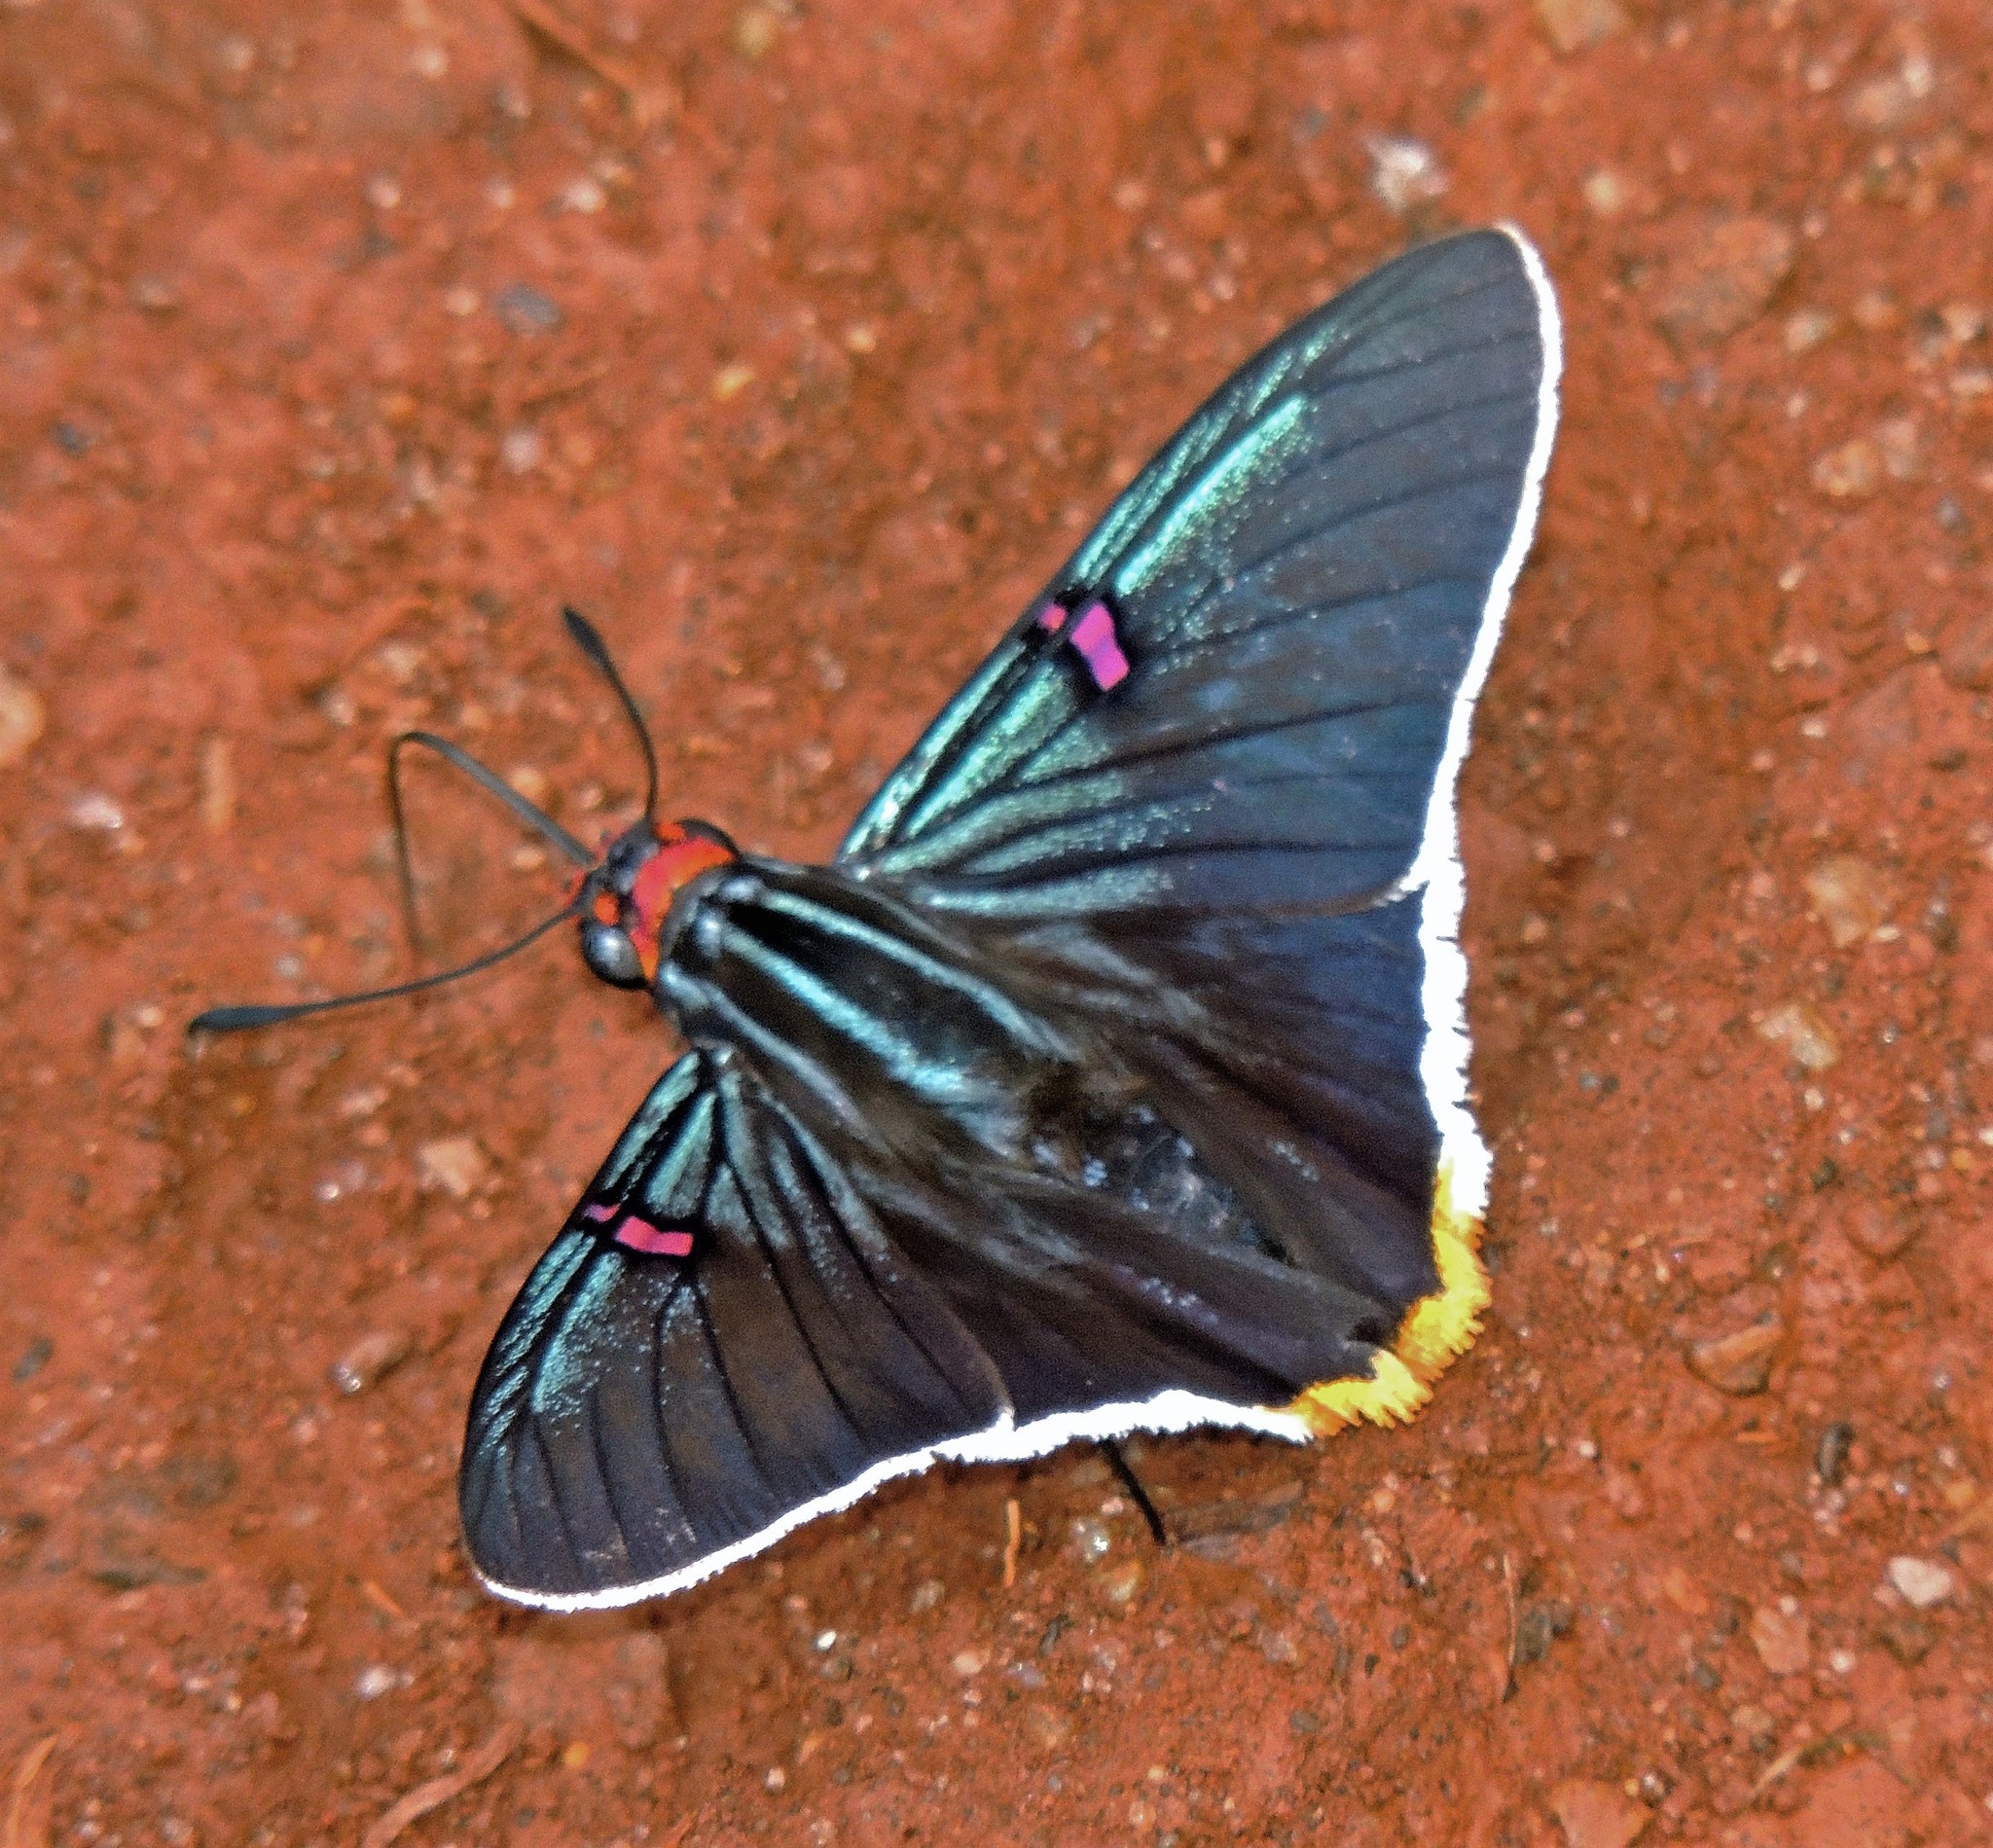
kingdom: Animalia
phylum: Arthropoda
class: Insecta
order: Lepidoptera
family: Hesperiidae
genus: Phocides
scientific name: Phocides polybius
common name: Guava skipper
